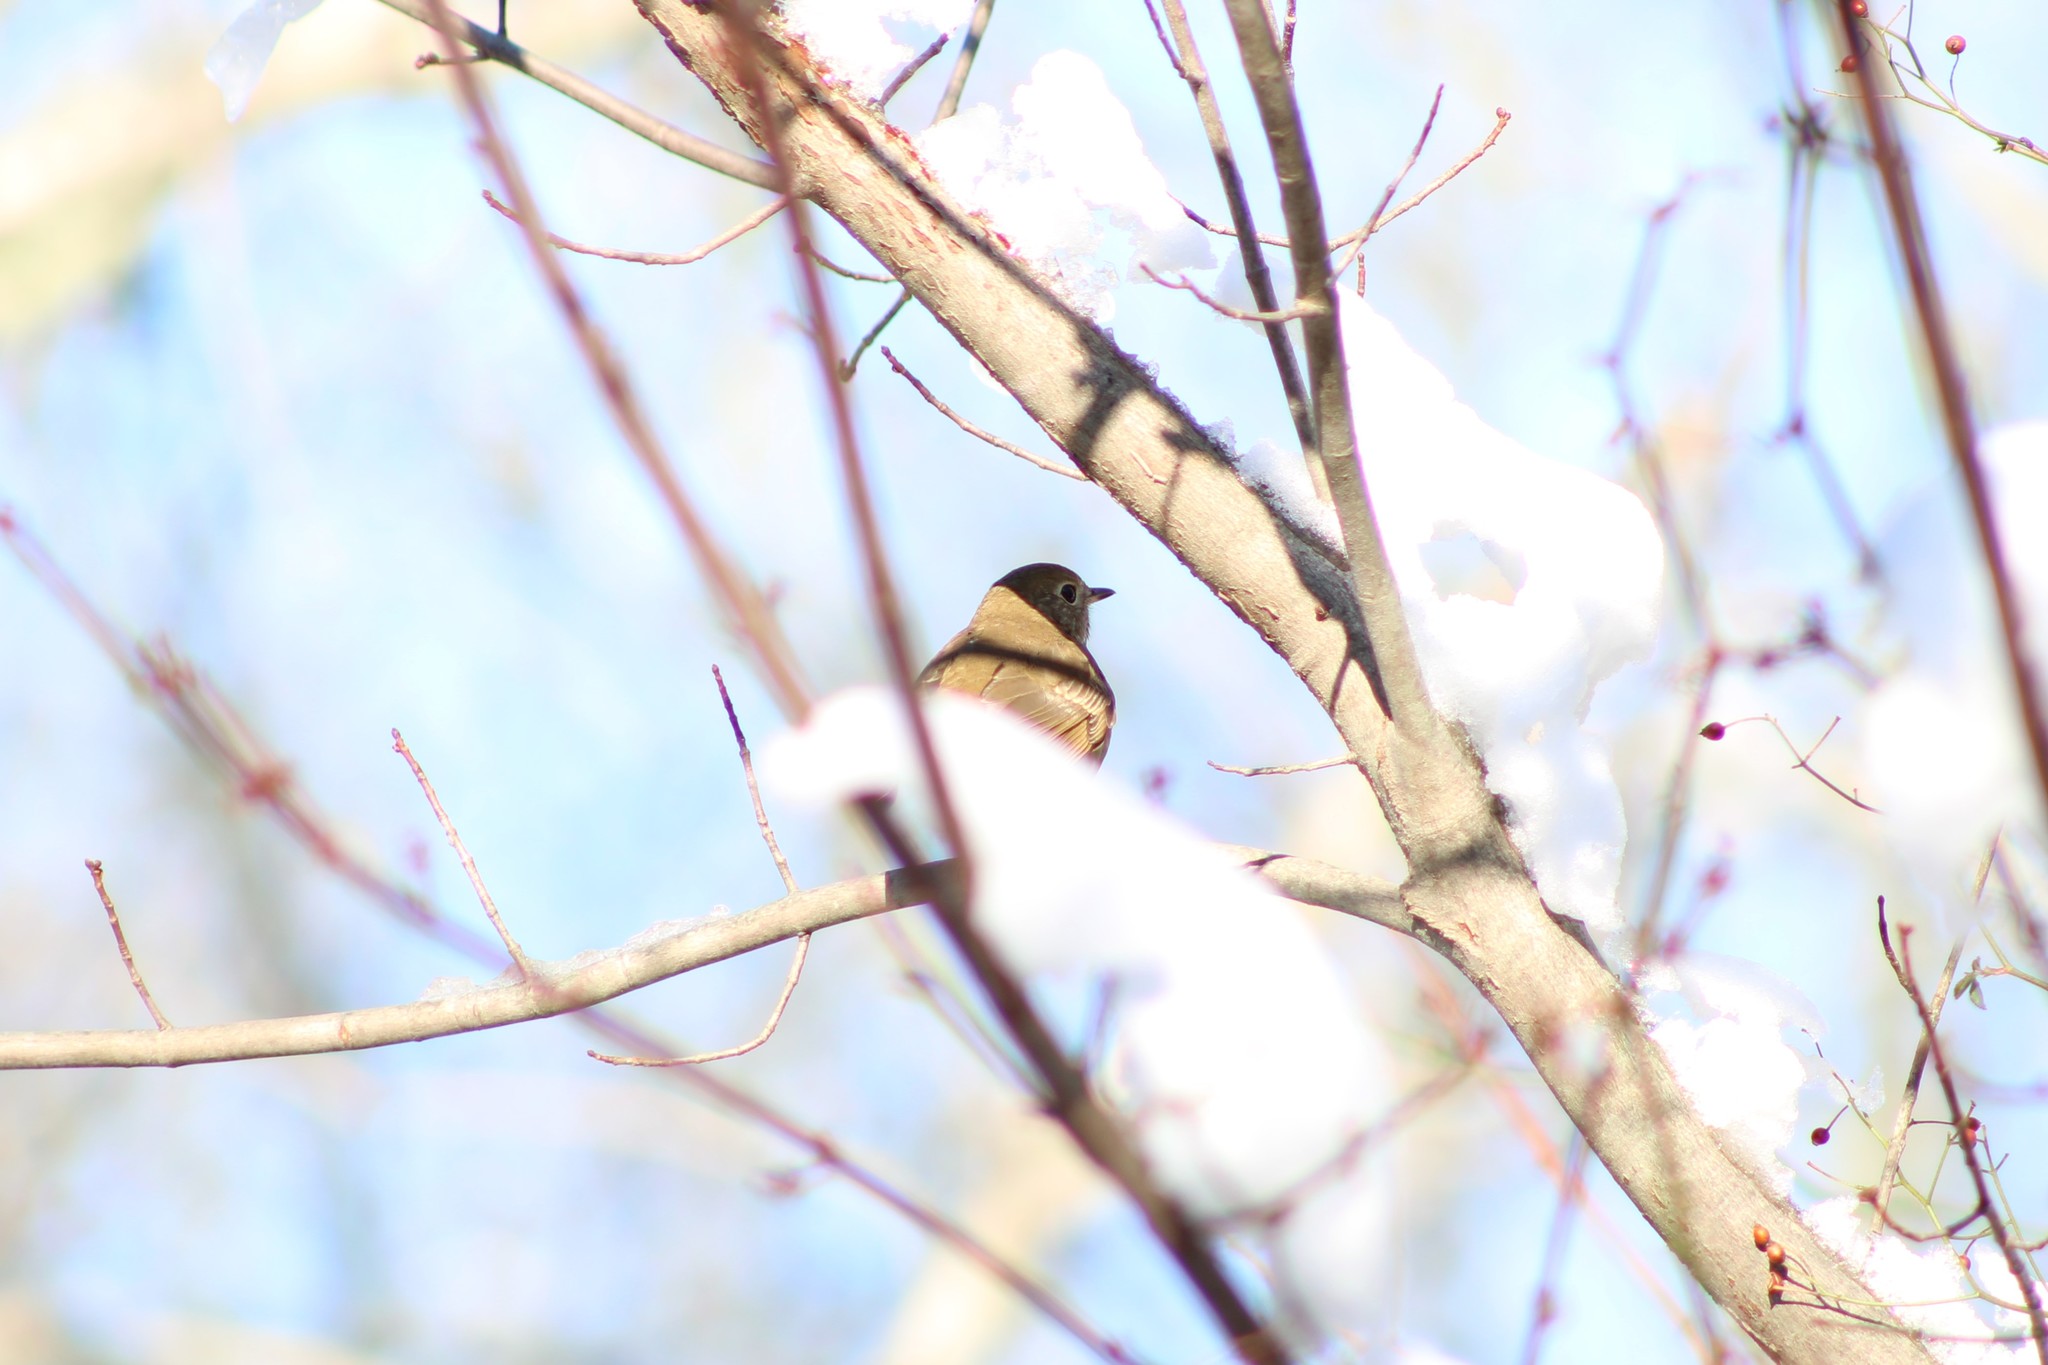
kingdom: Animalia
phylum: Chordata
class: Aves
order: Passeriformes
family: Turdidae
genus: Catharus
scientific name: Catharus guttatus
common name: Hermit thrush
